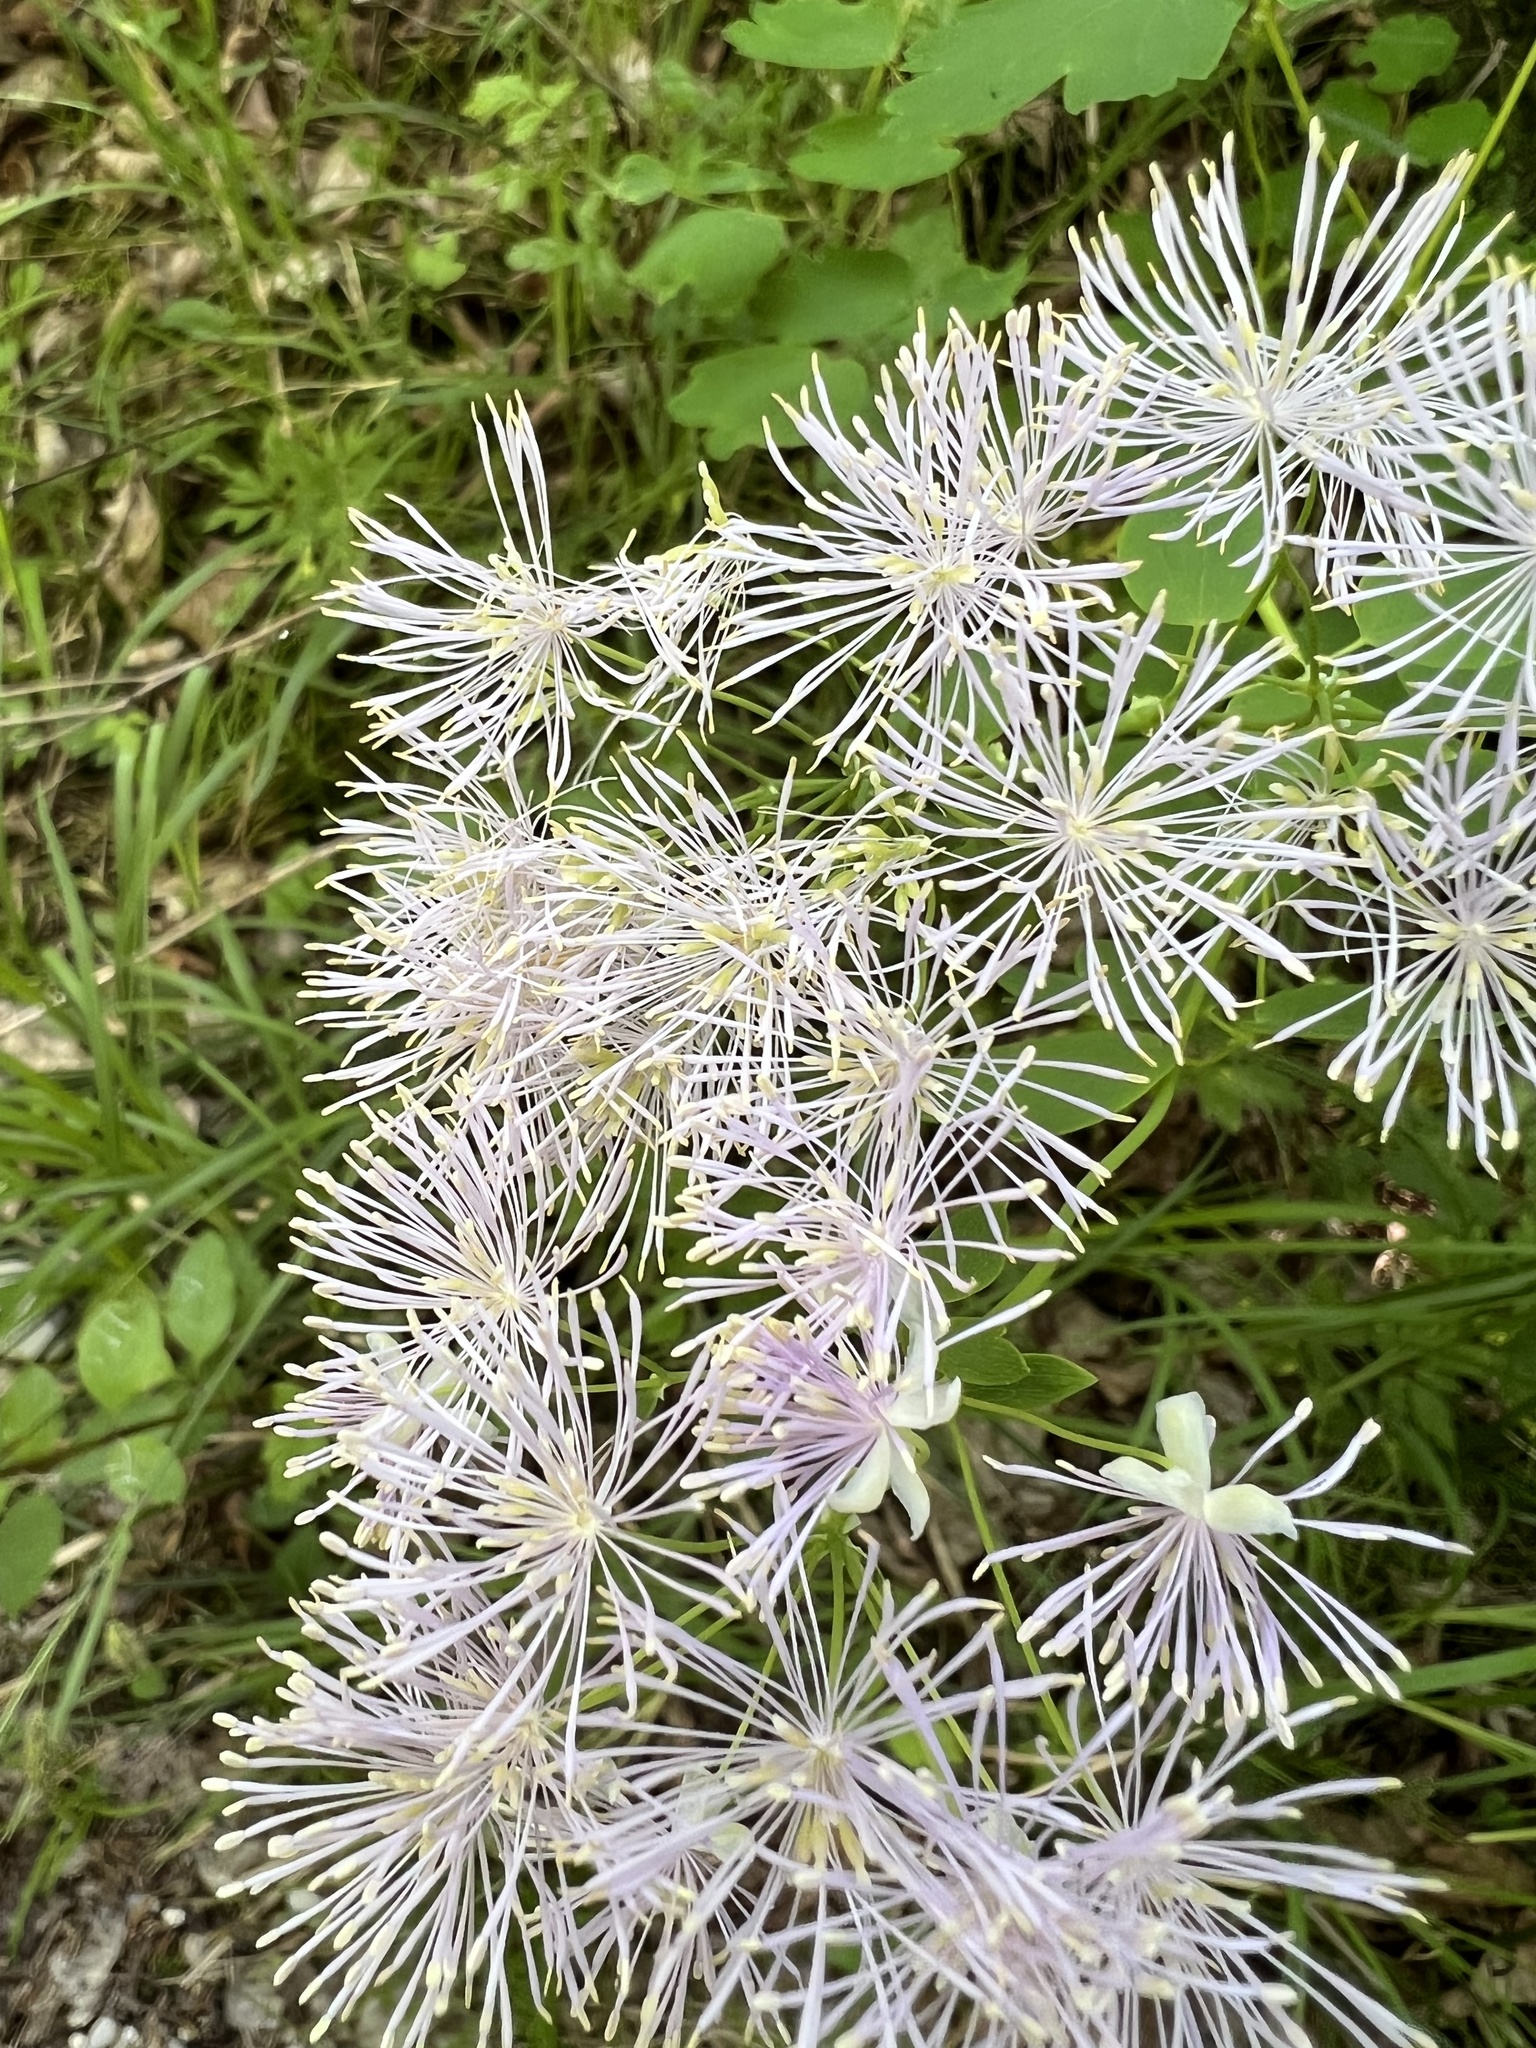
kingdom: Plantae
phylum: Tracheophyta
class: Magnoliopsida
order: Ranunculales
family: Ranunculaceae
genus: Thalictrum
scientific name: Thalictrum aquilegiifolium
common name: French meadow-rue
